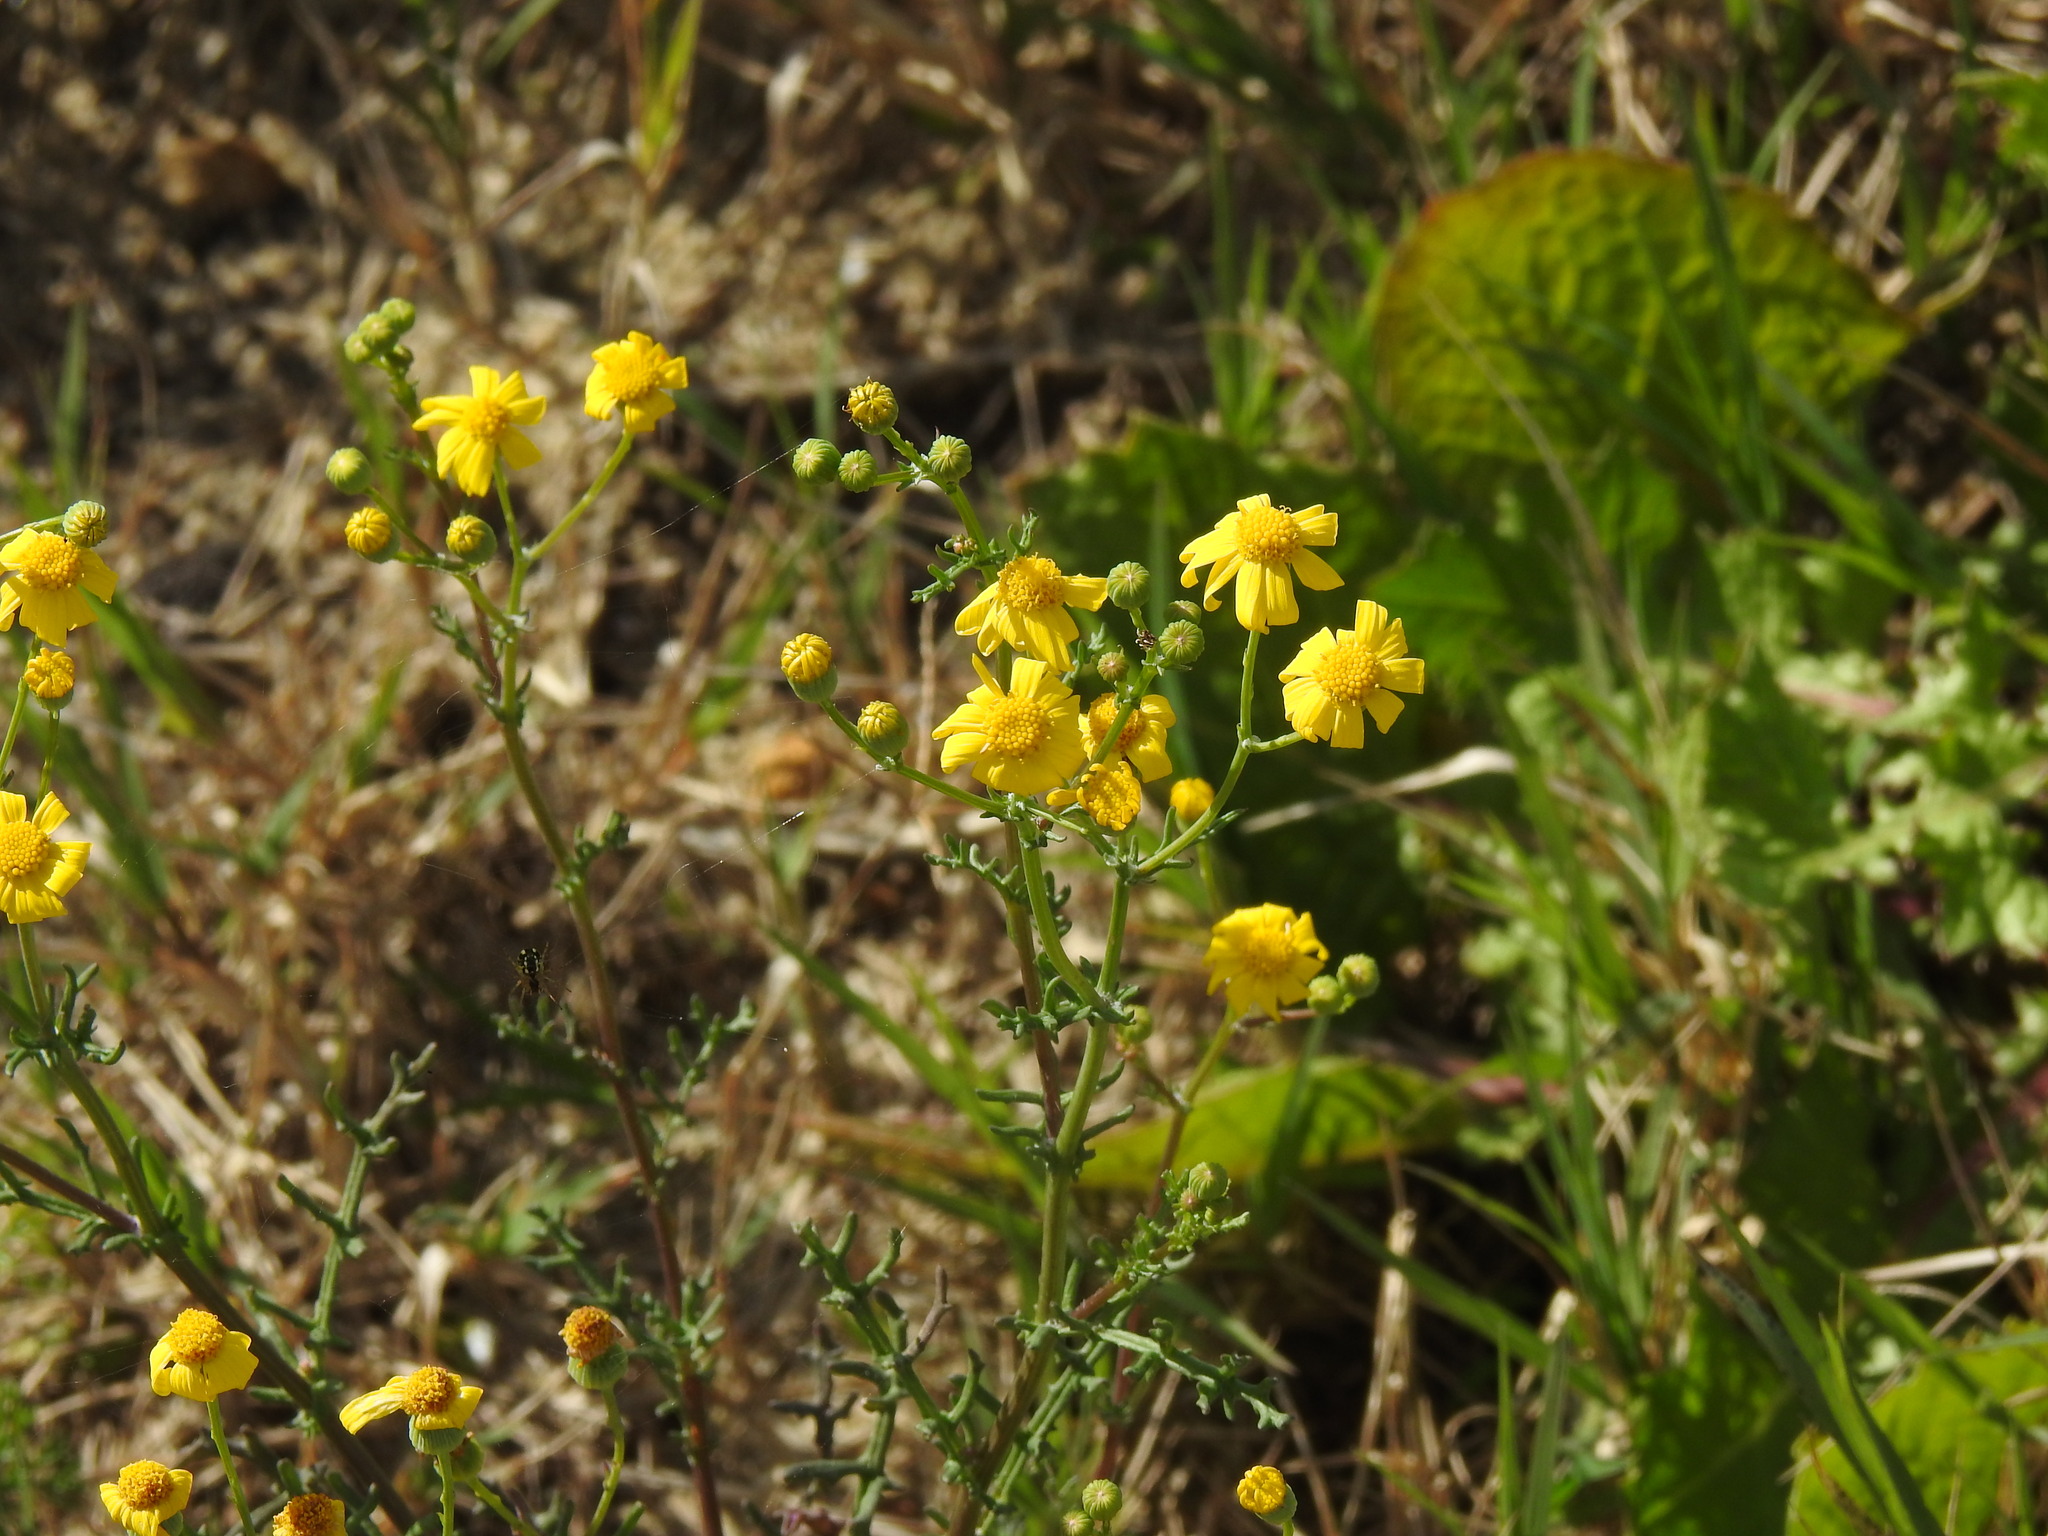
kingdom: Plantae
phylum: Tracheophyta
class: Magnoliopsida
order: Asterales
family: Asteraceae
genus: Senecio
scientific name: Senecio gallicus
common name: French groundsel
